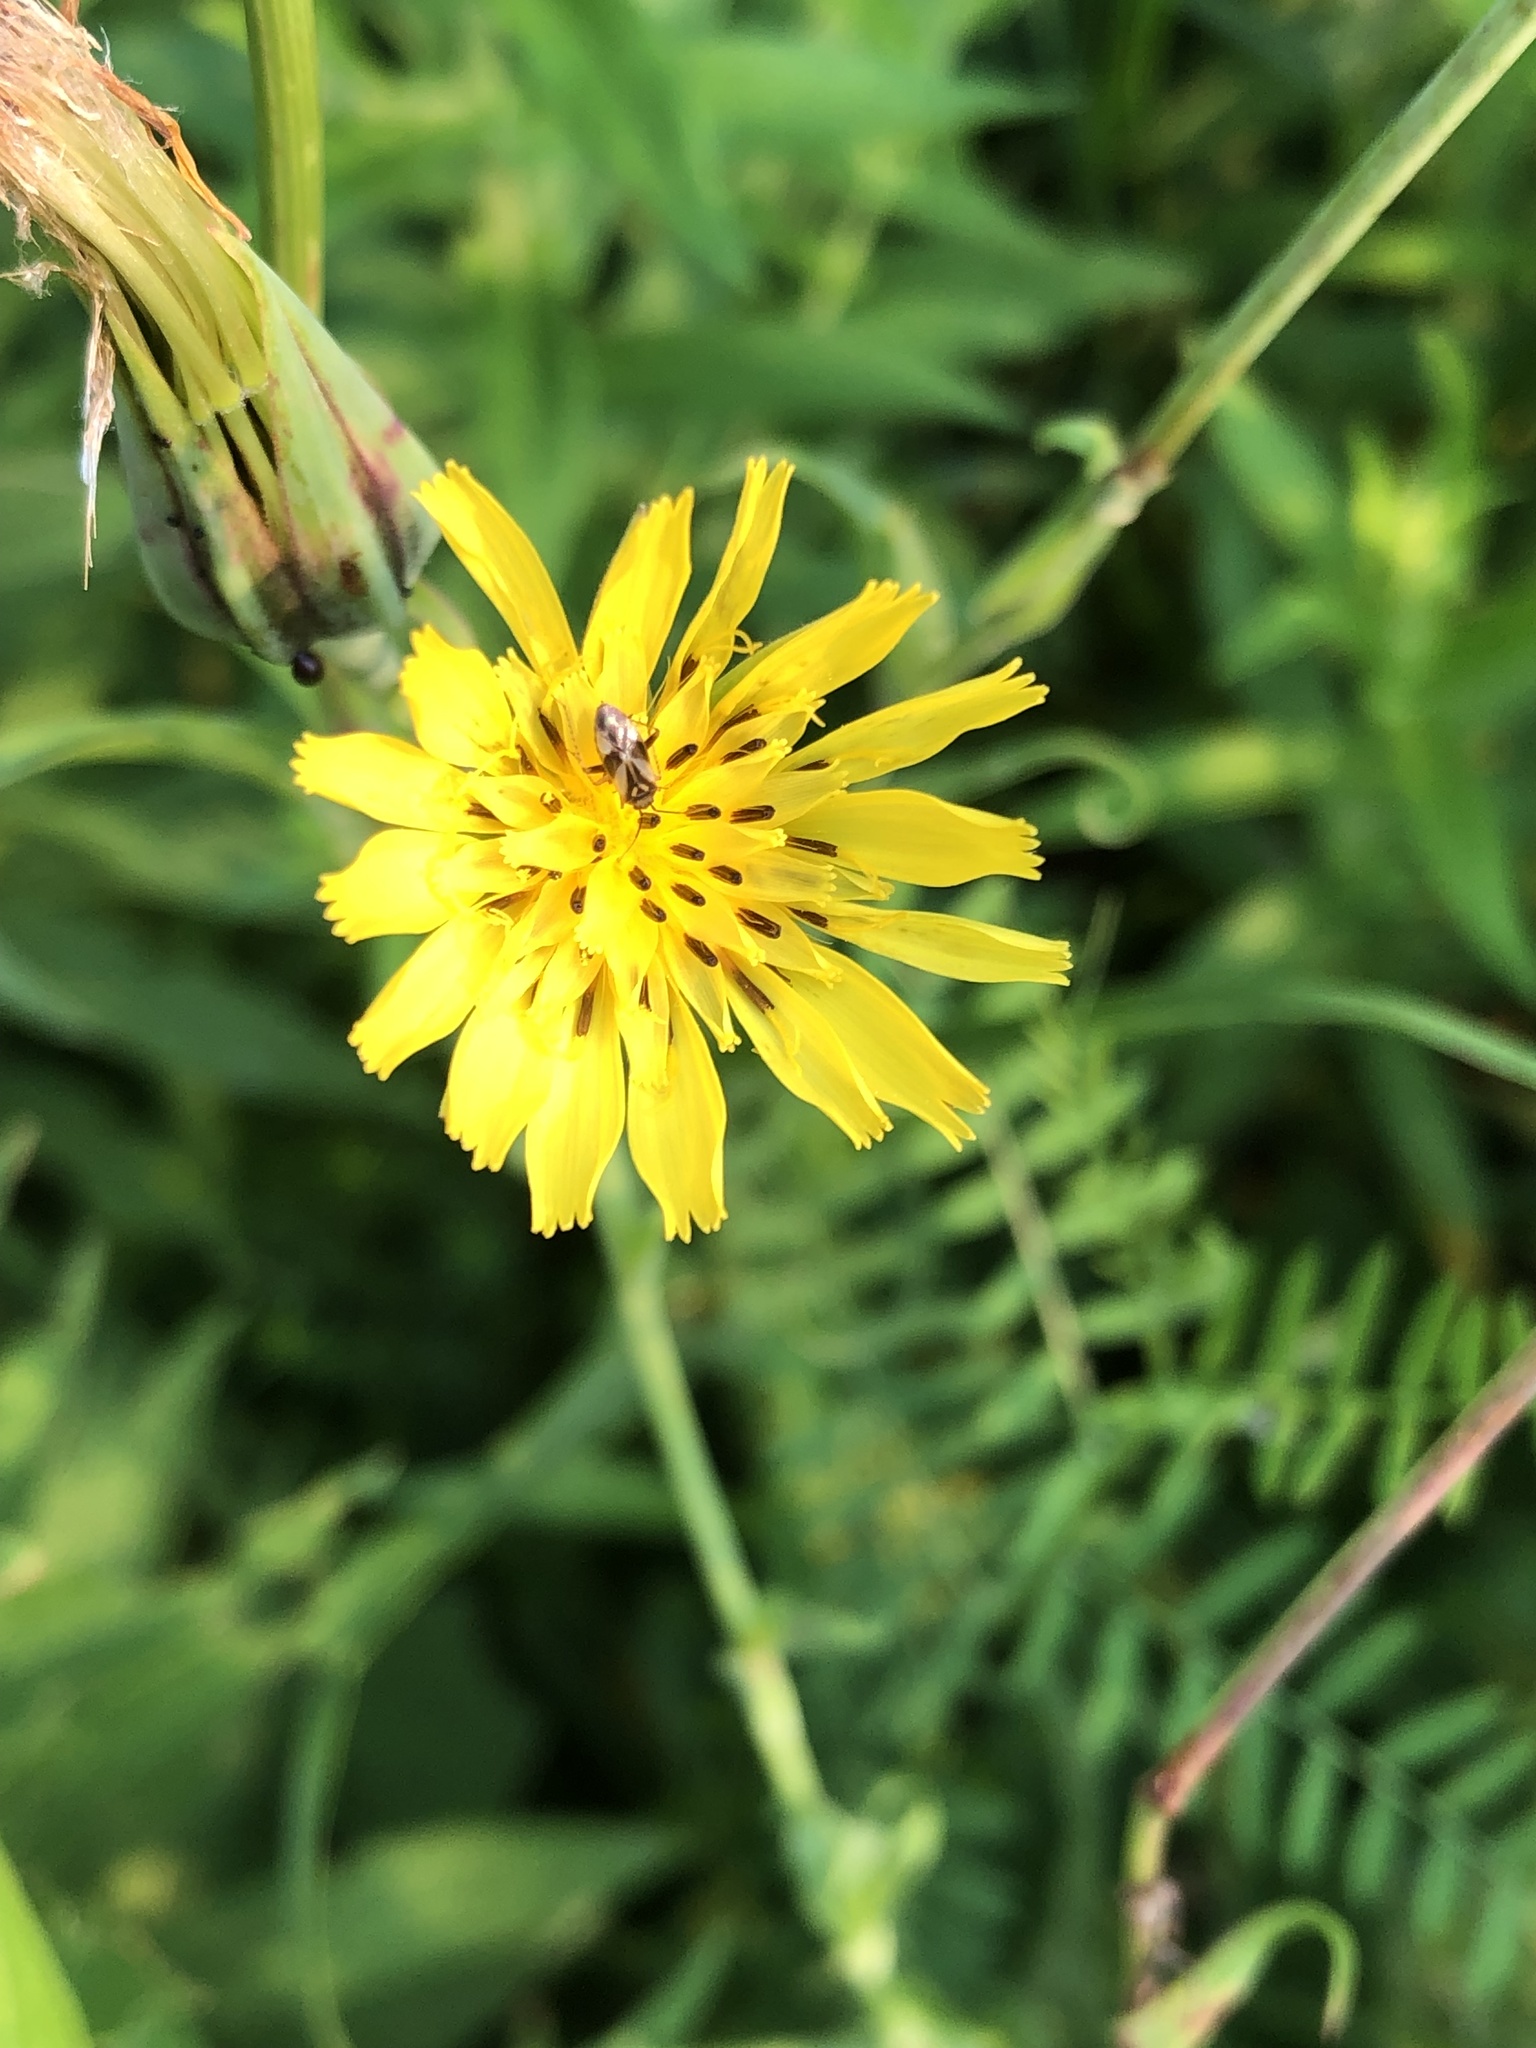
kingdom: Plantae
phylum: Tracheophyta
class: Magnoliopsida
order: Asterales
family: Asteraceae
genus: Tragopogon
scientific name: Tragopogon pratensis
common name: Goat's-beard
